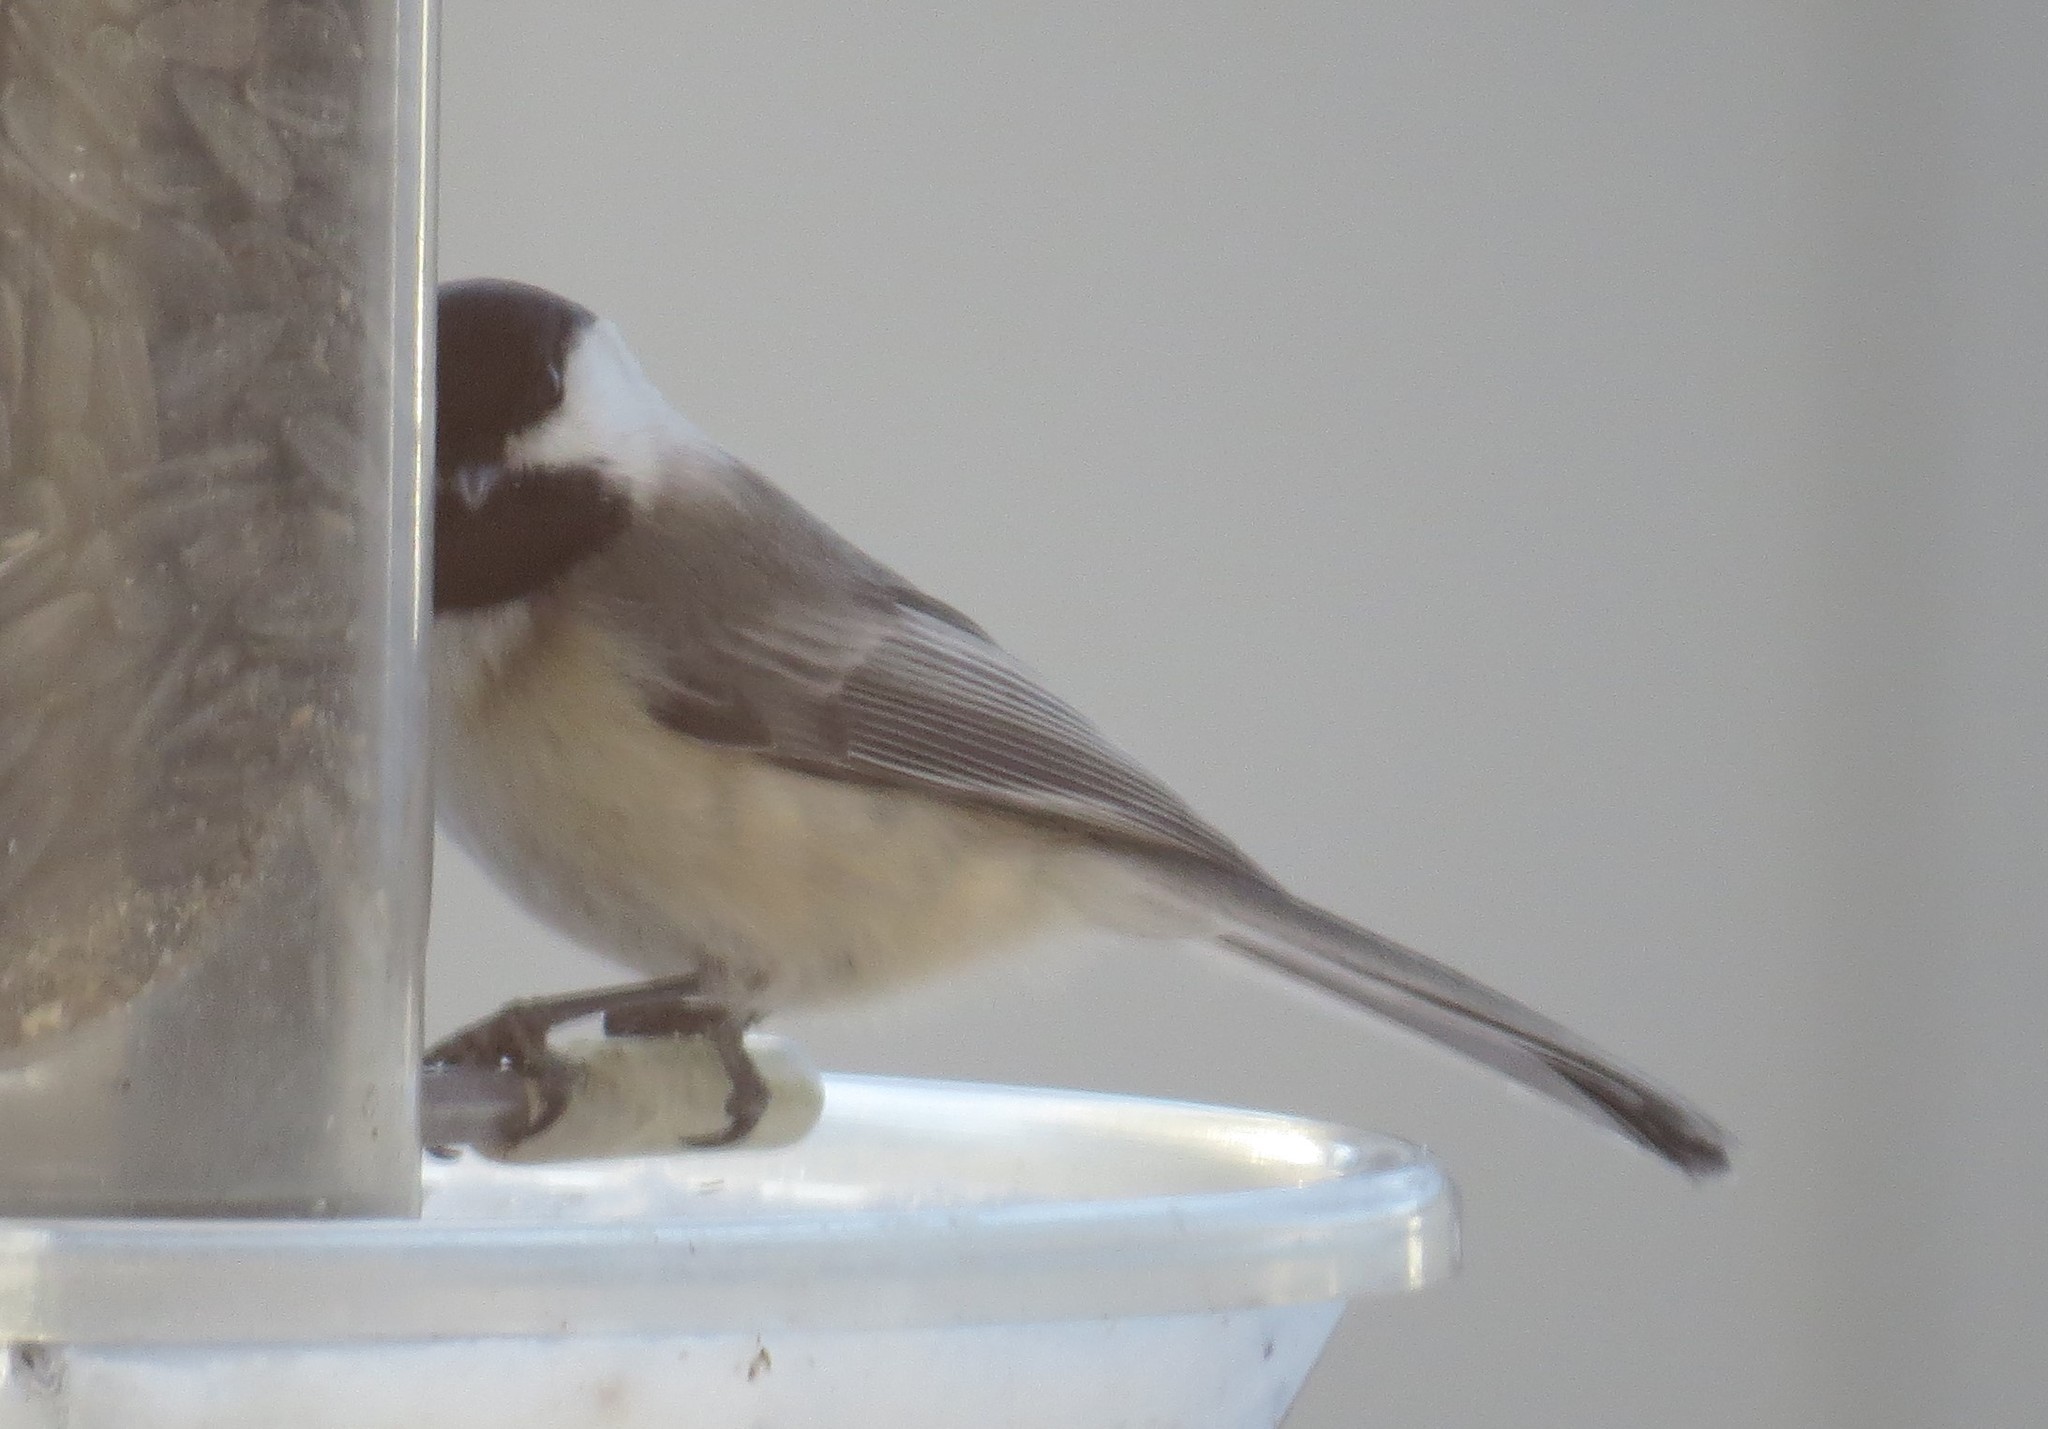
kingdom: Animalia
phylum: Chordata
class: Aves
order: Passeriformes
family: Paridae
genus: Poecile
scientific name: Poecile atricapillus
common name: Black-capped chickadee
